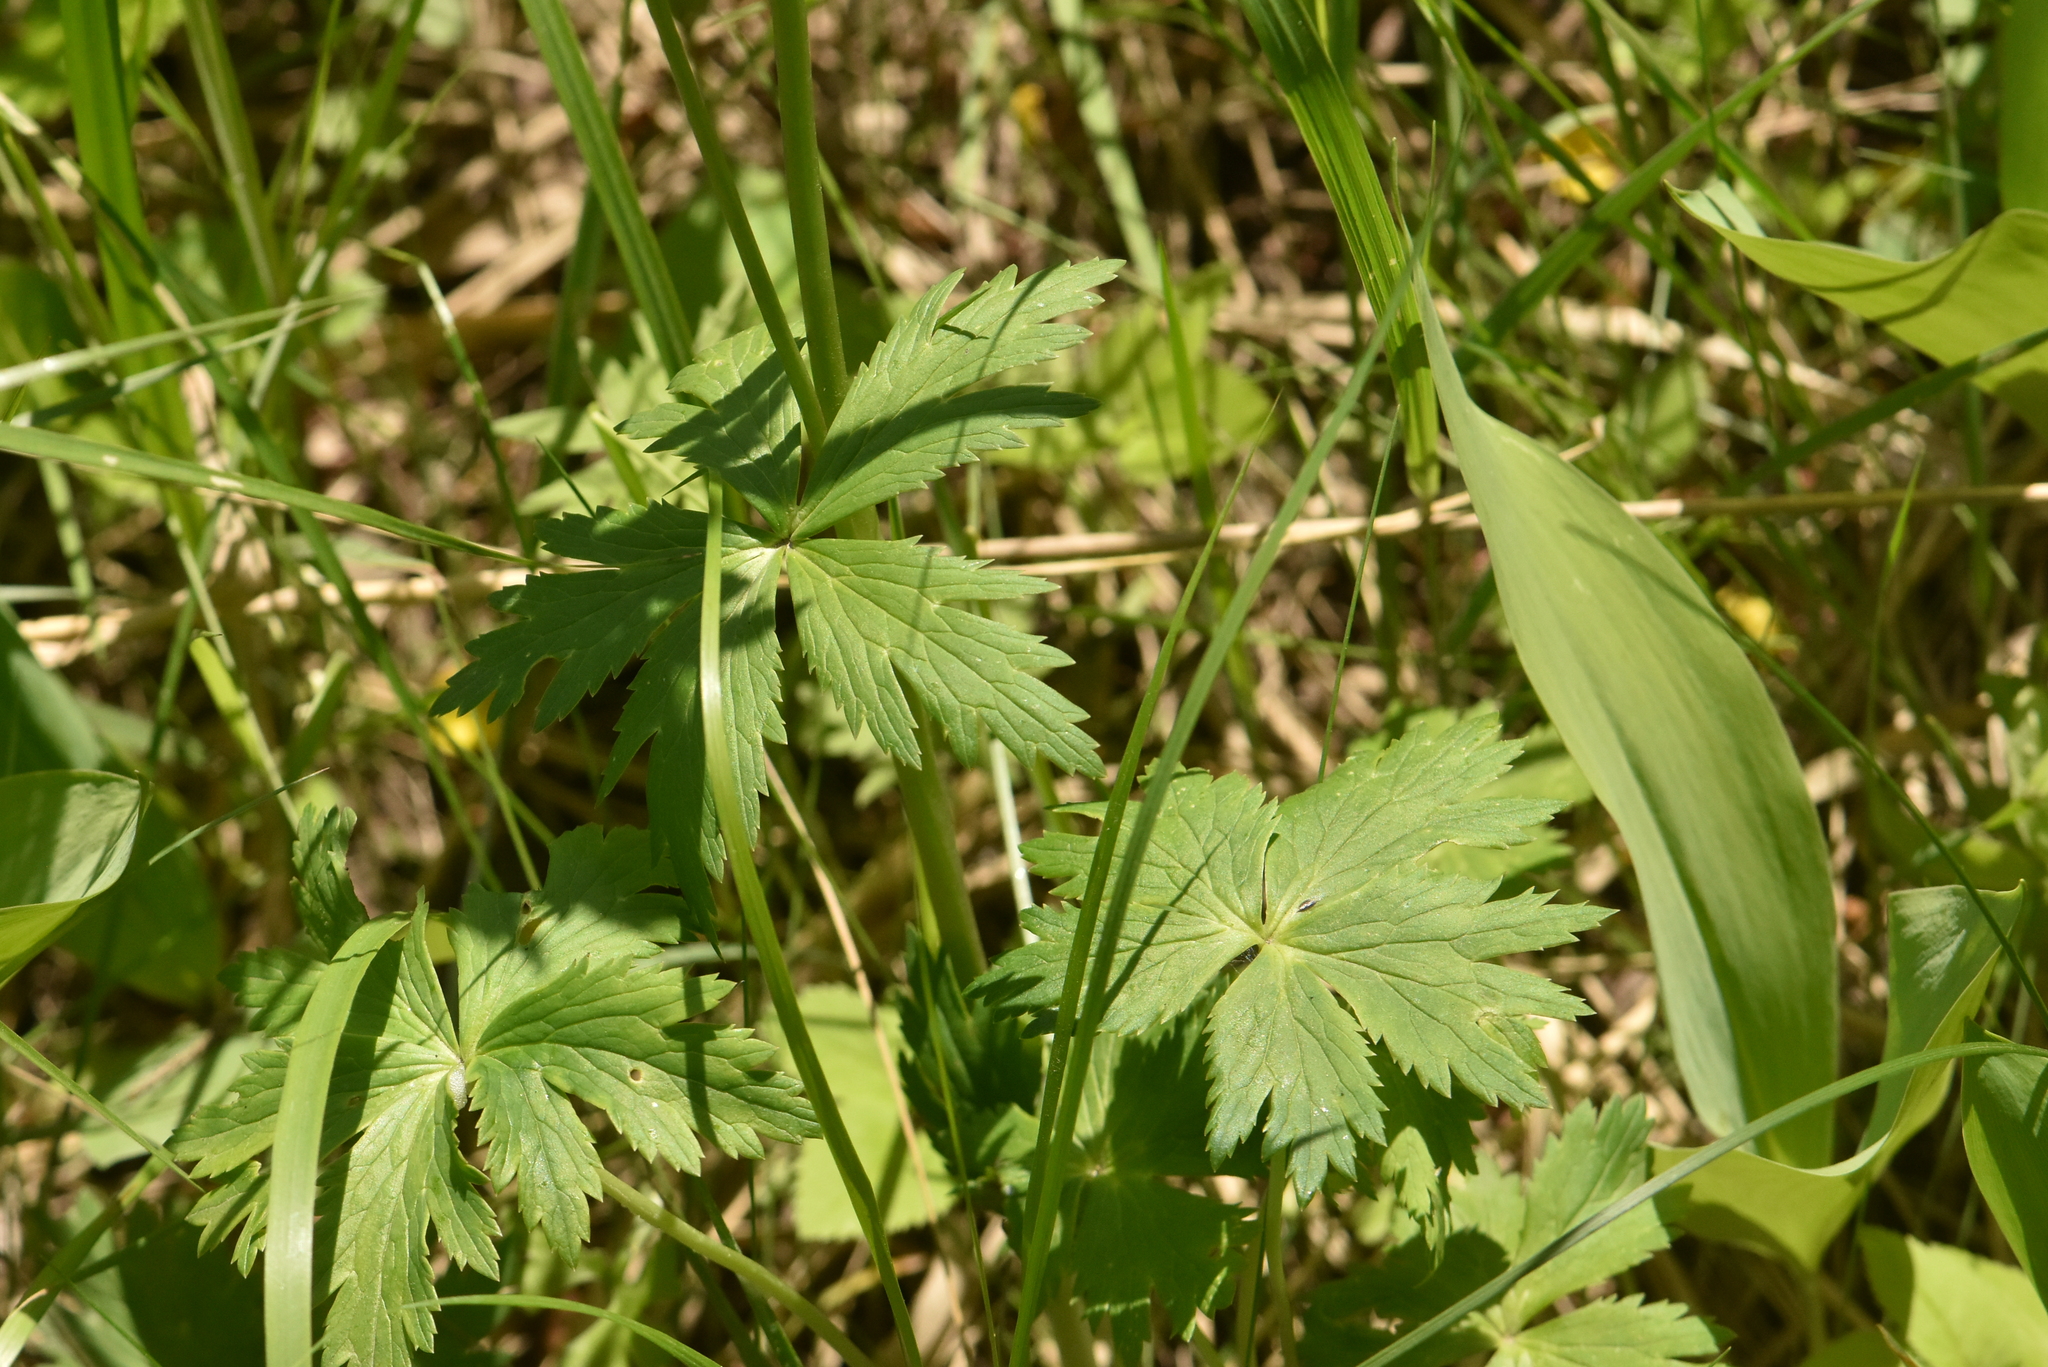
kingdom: Plantae
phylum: Tracheophyta
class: Magnoliopsida
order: Ranunculales
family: Ranunculaceae
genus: Trollius
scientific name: Trollius europaeus
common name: European globeflower
